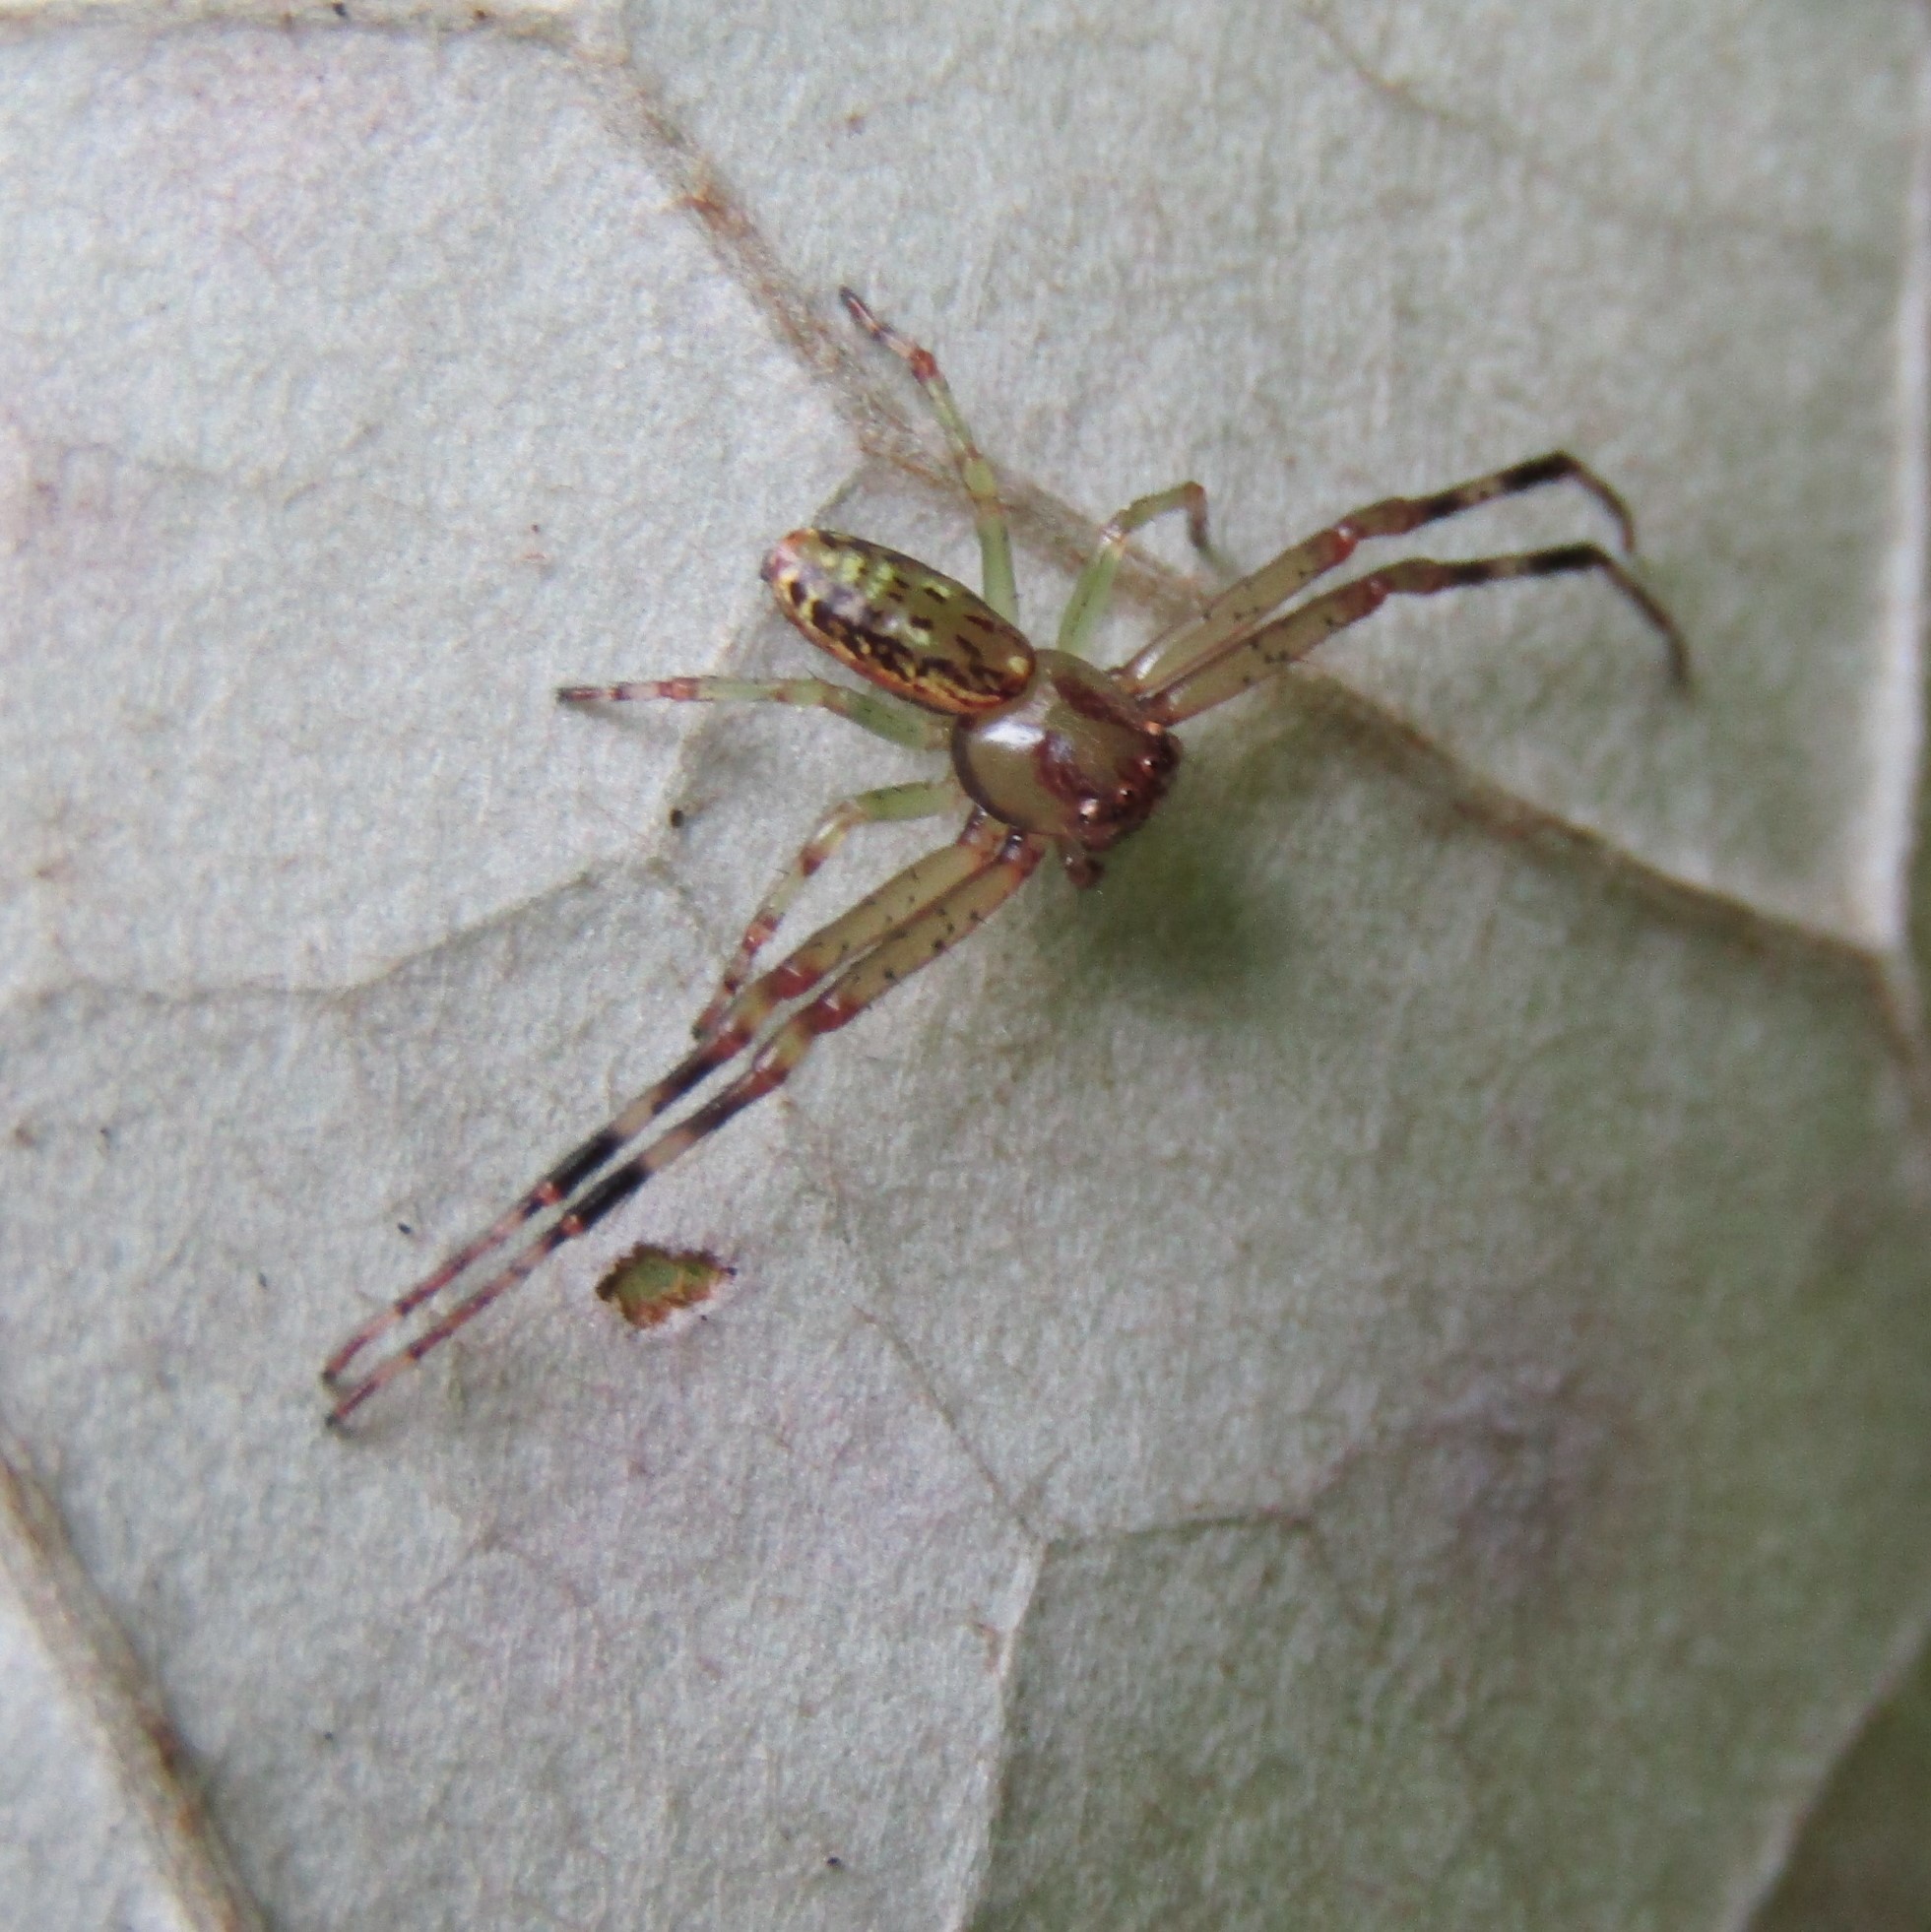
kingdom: Animalia
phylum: Arthropoda
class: Arachnida
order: Araneae
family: Thomisidae
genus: Diaea
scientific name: Diaea ambara
